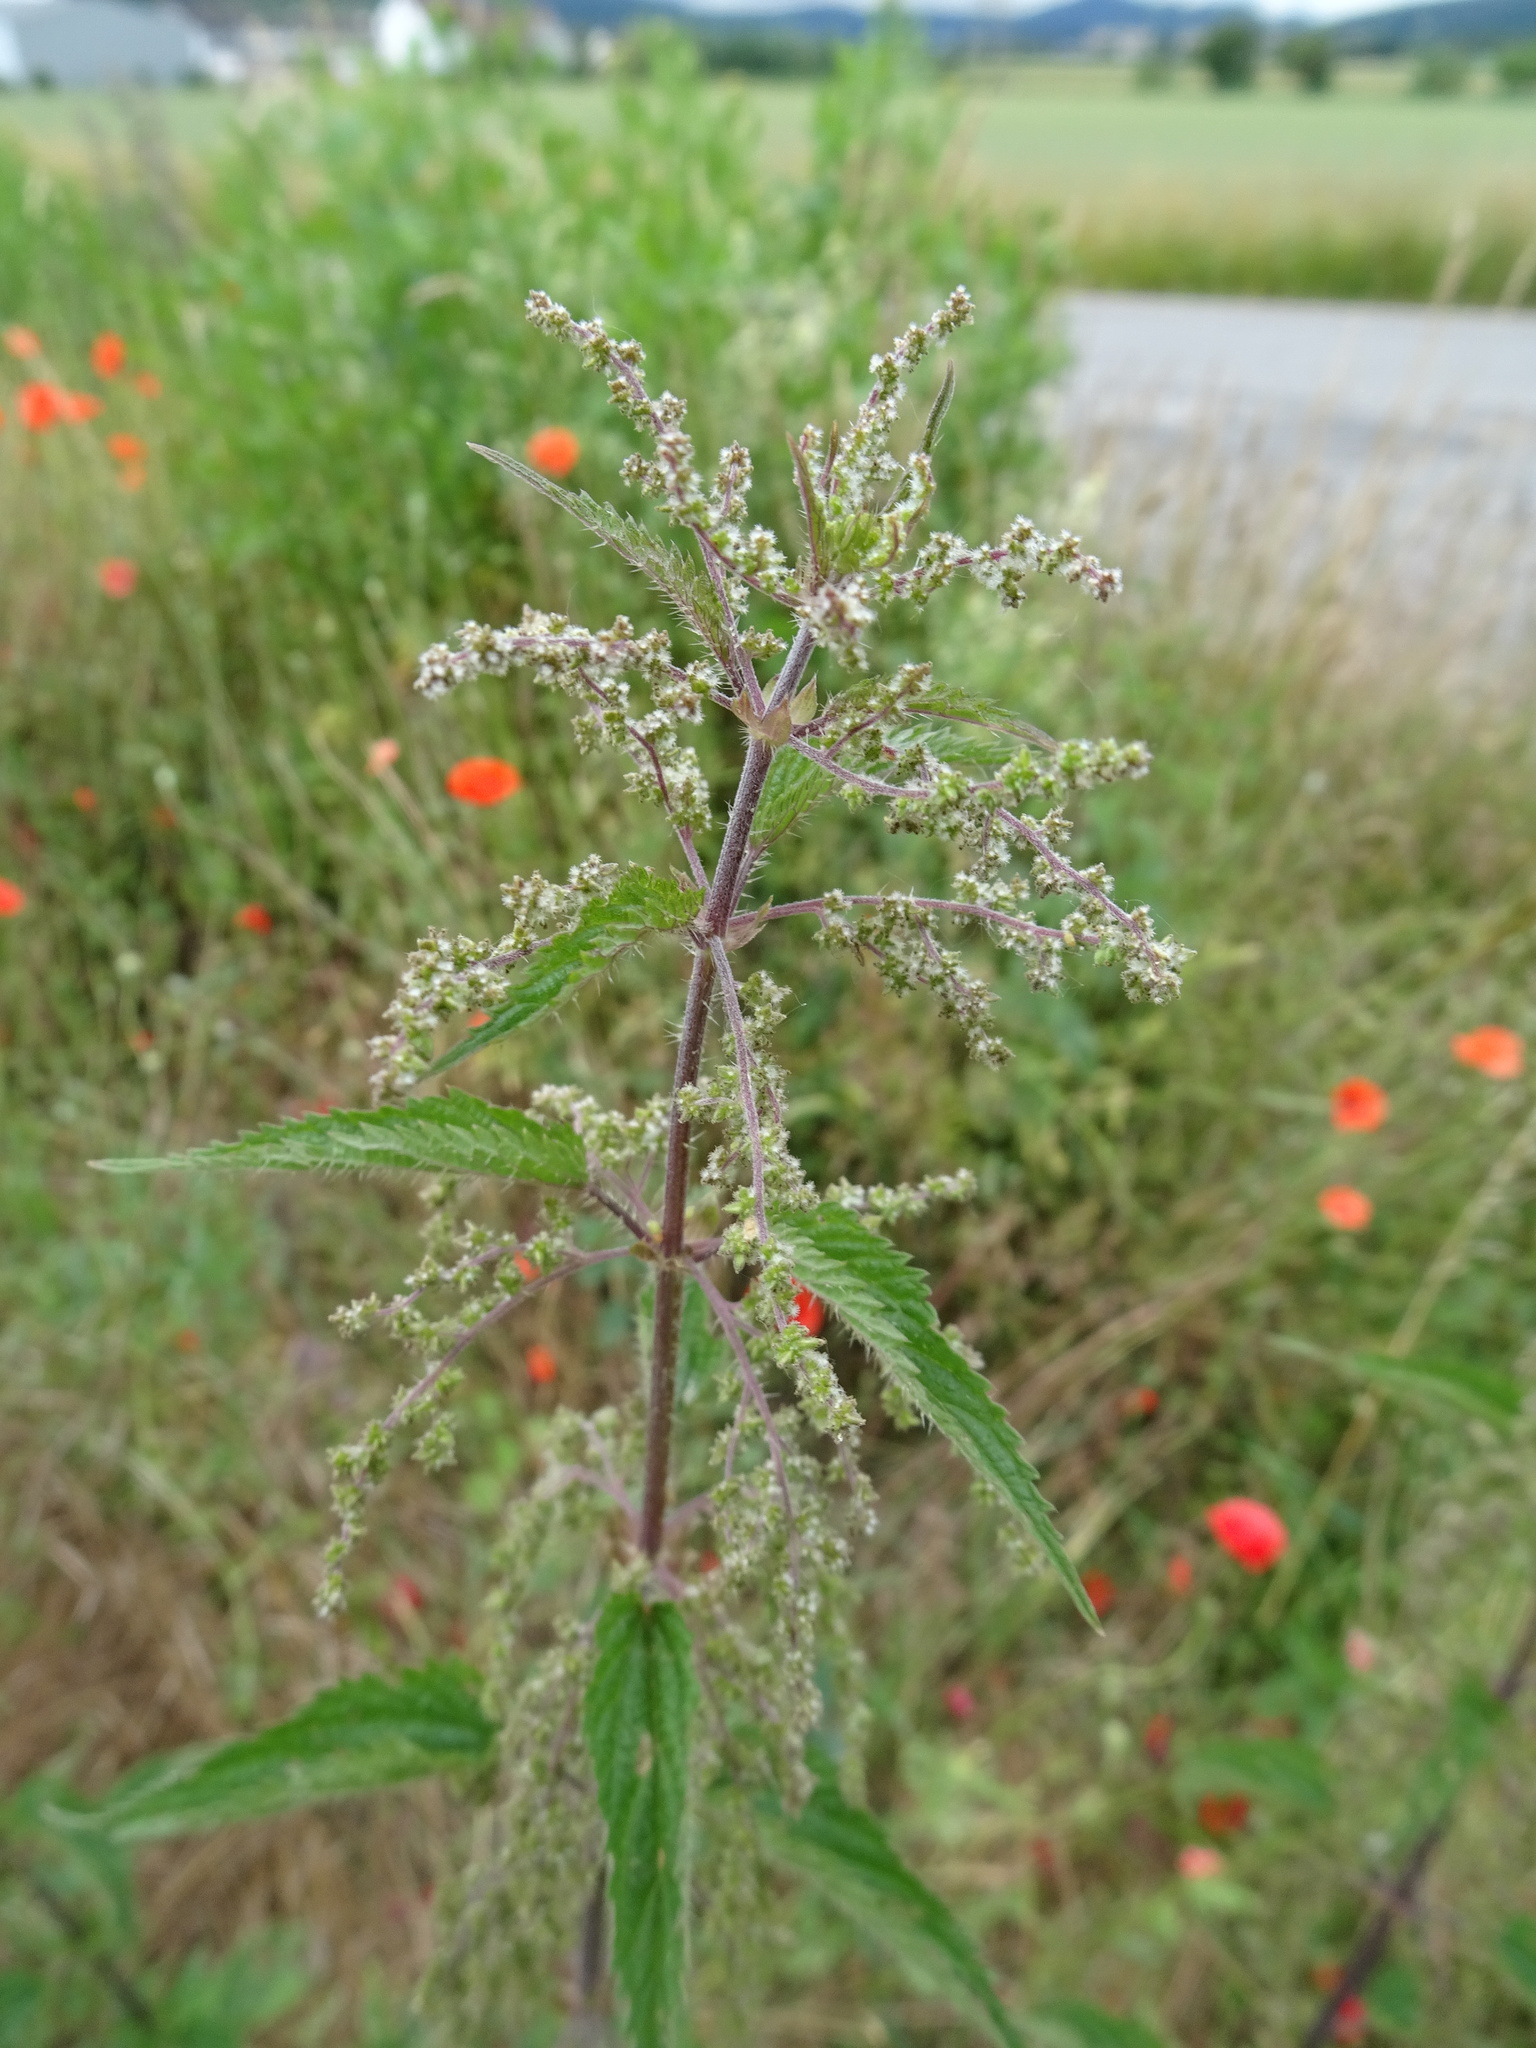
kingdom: Plantae
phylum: Tracheophyta
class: Magnoliopsida
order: Rosales
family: Urticaceae
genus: Urtica
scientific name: Urtica dioica
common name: Common nettle
